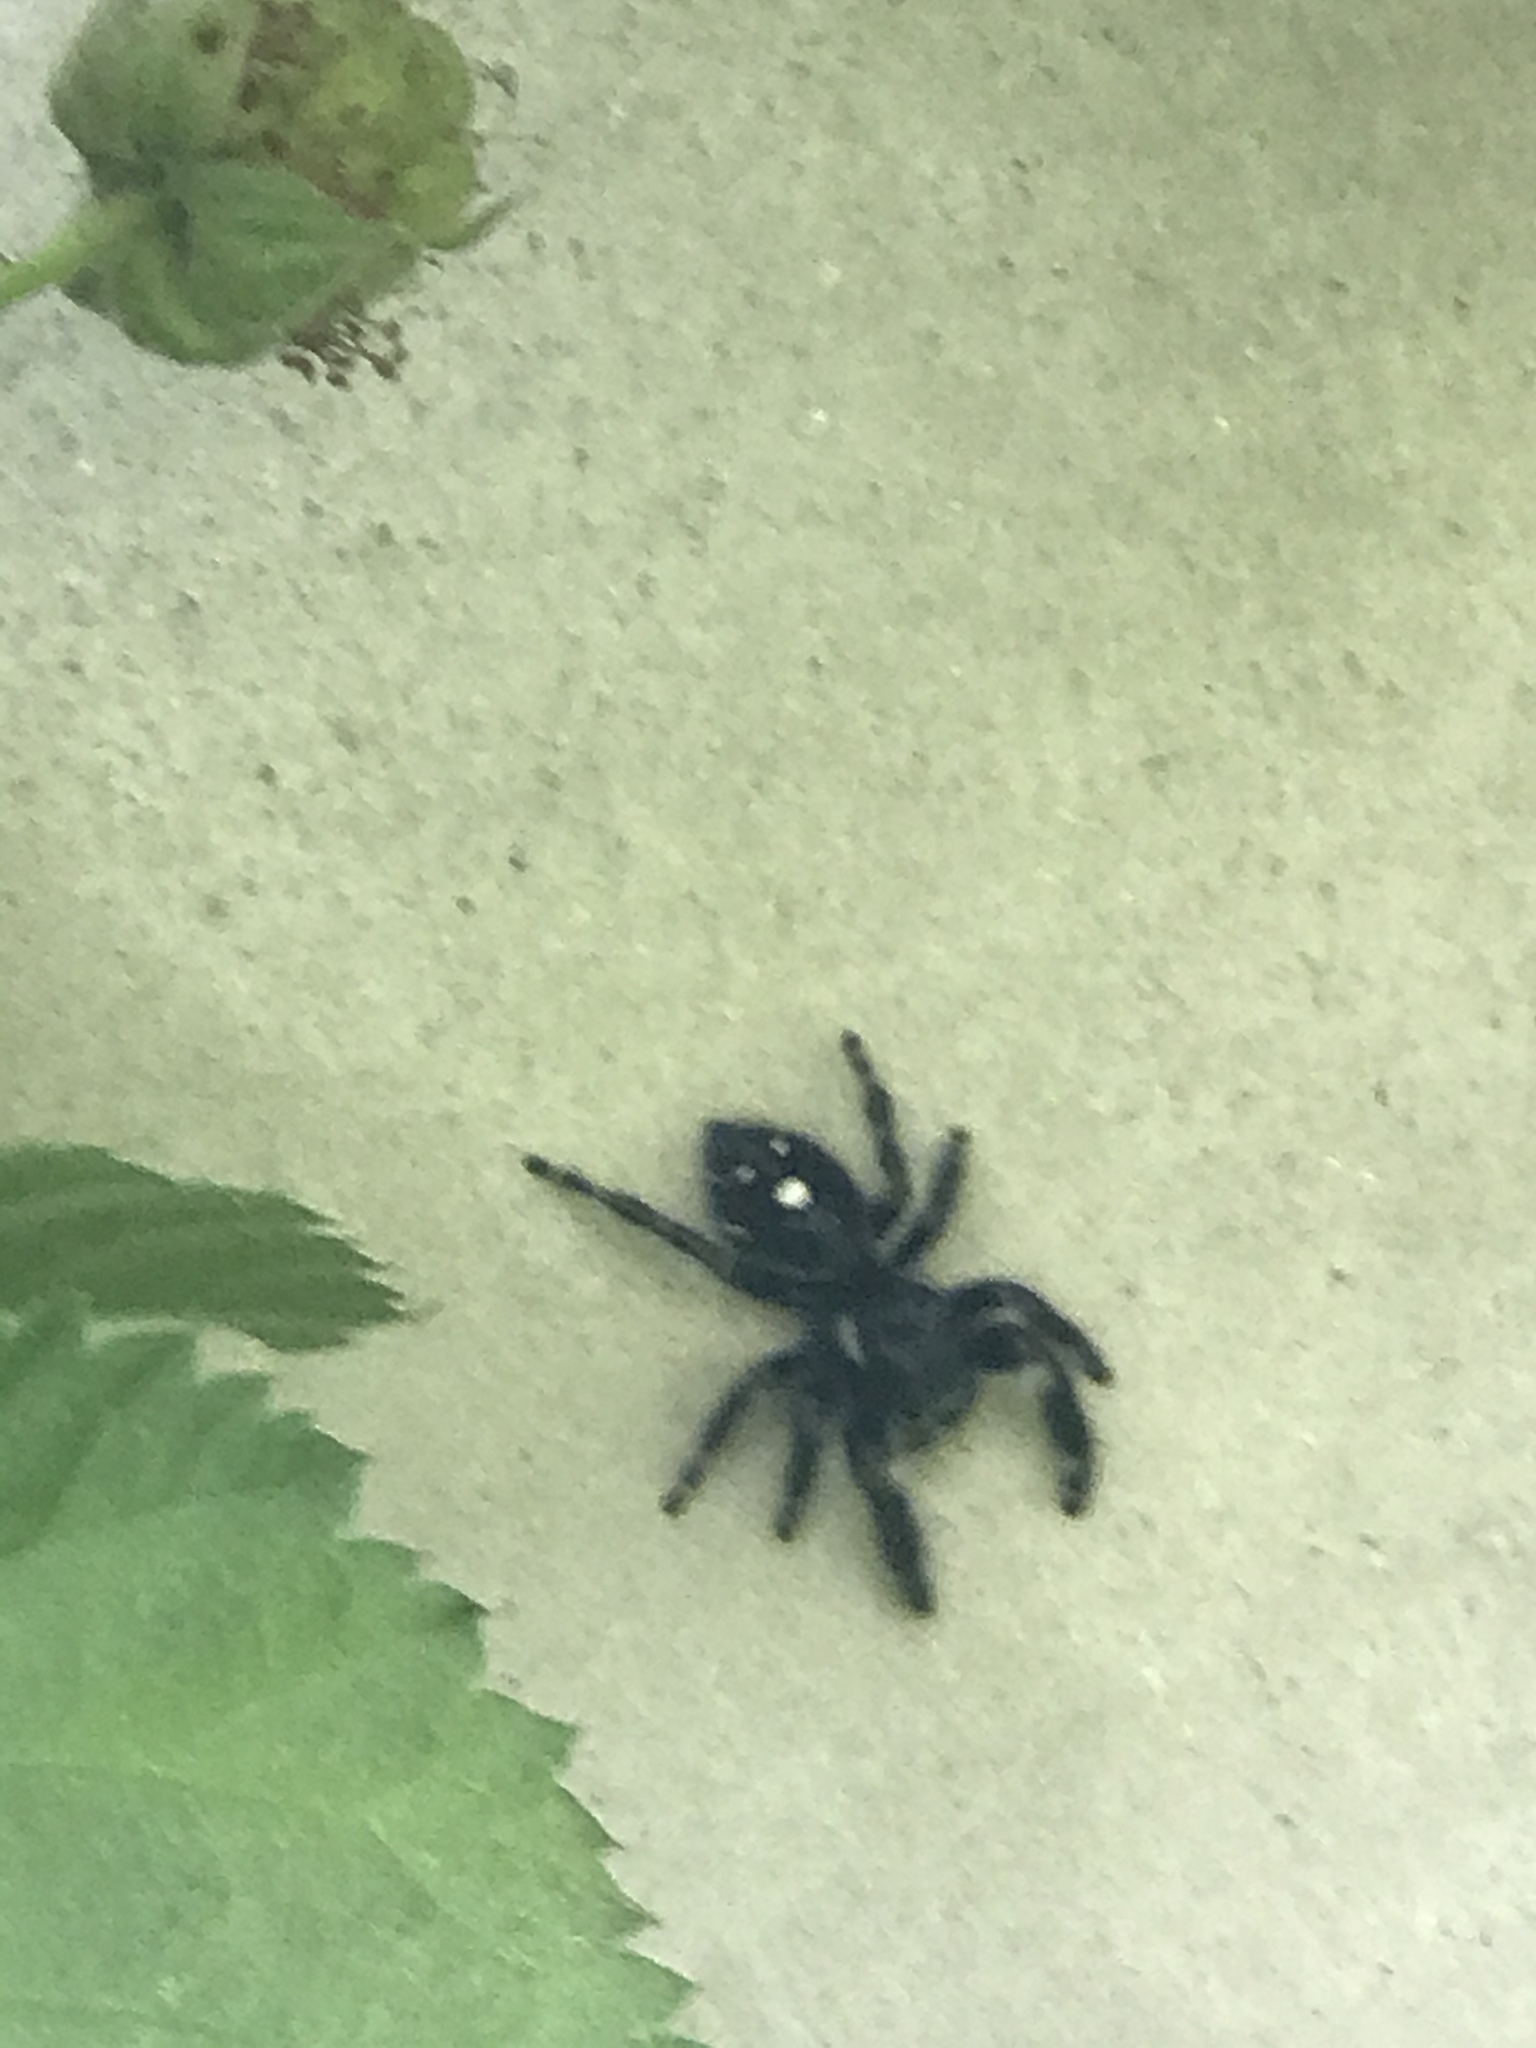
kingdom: Animalia
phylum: Arthropoda
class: Arachnida
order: Araneae
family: Salticidae
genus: Phidippus
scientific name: Phidippus audax
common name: Bold jumper
